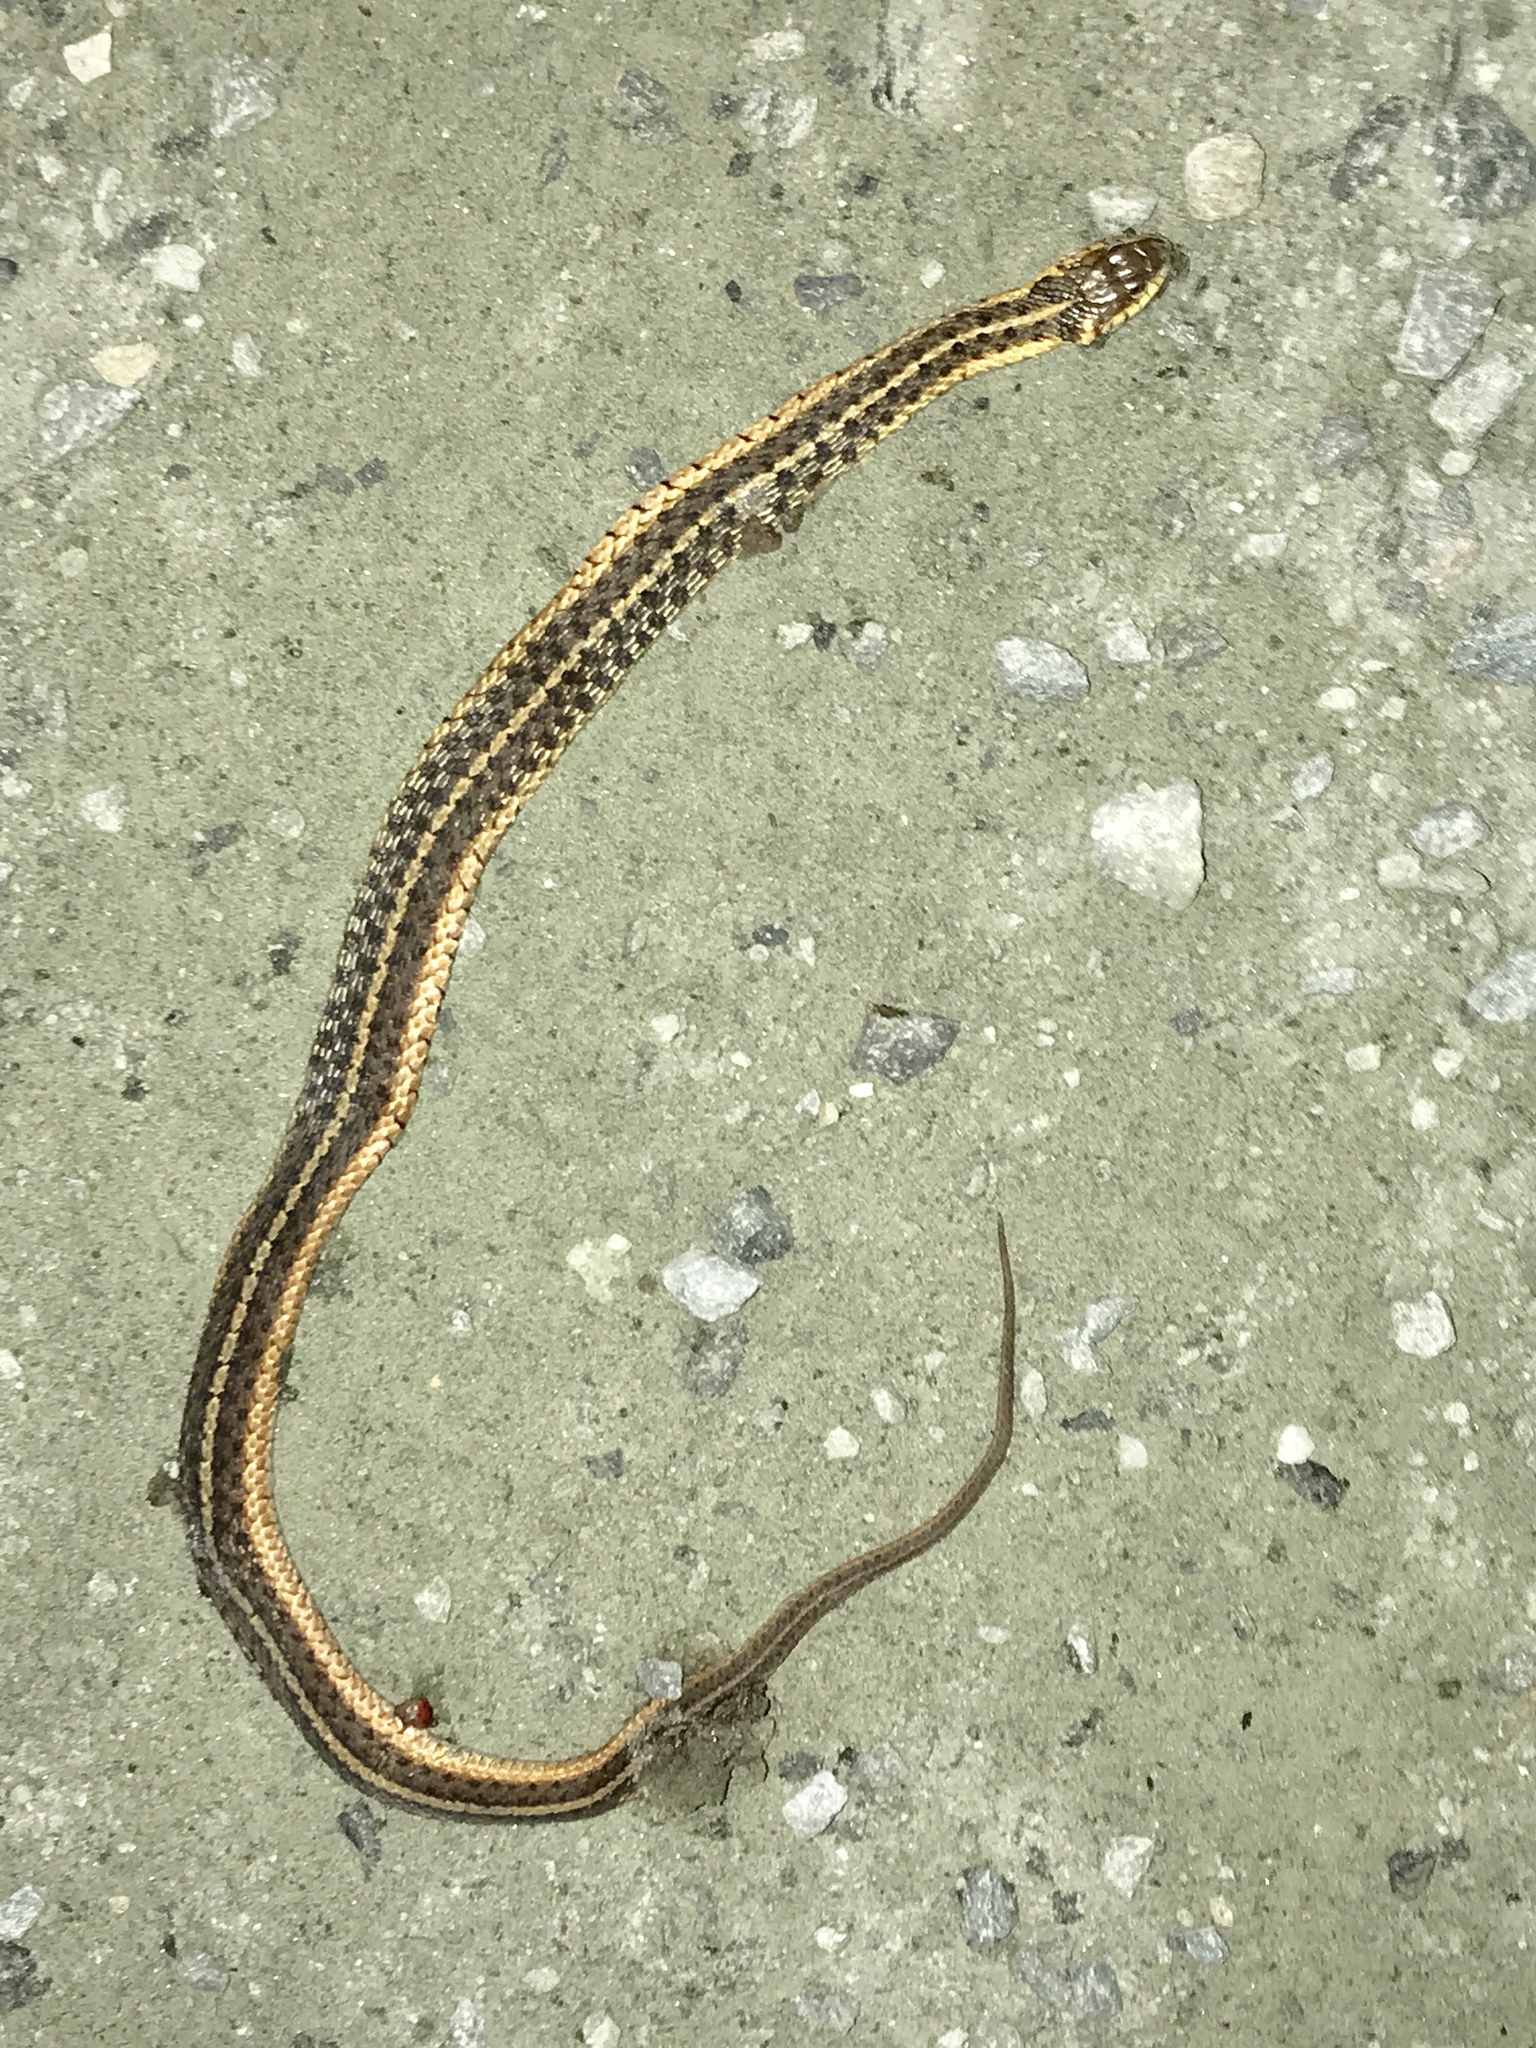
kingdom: Animalia
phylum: Chordata
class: Squamata
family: Colubridae
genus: Thamnophis
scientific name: Thamnophis sirtalis
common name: Common garter snake
